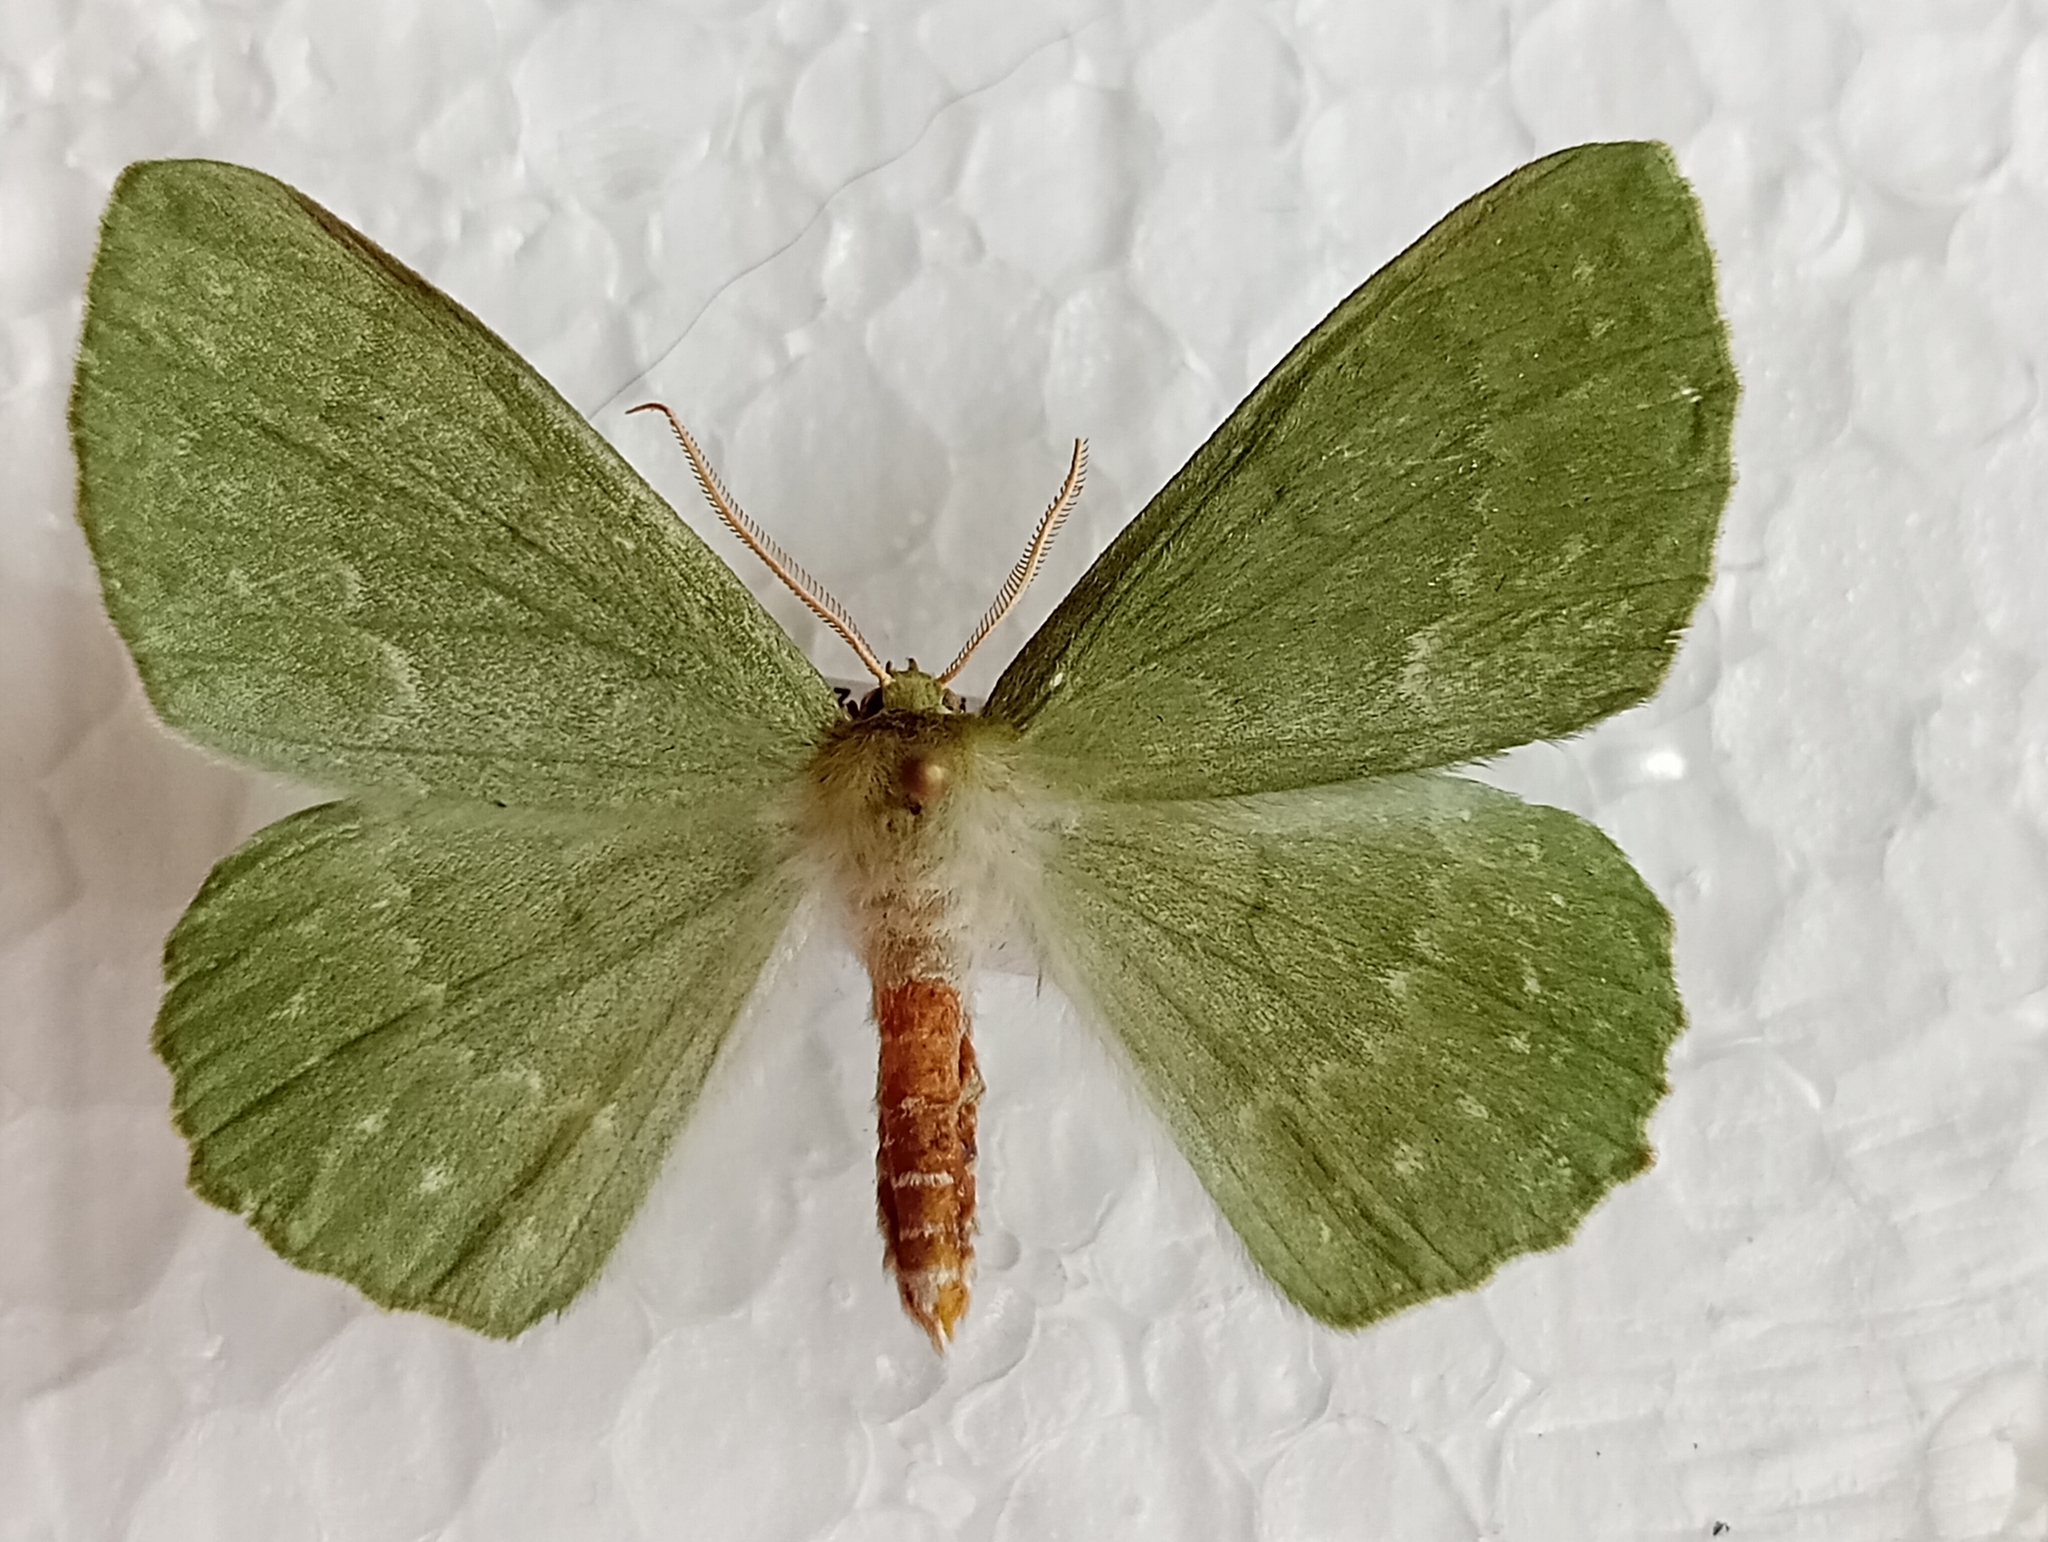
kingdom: Animalia
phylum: Arthropoda
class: Insecta
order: Lepidoptera
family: Geometridae
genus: Geometra
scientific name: Geometra papilionaria
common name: Large emerald
